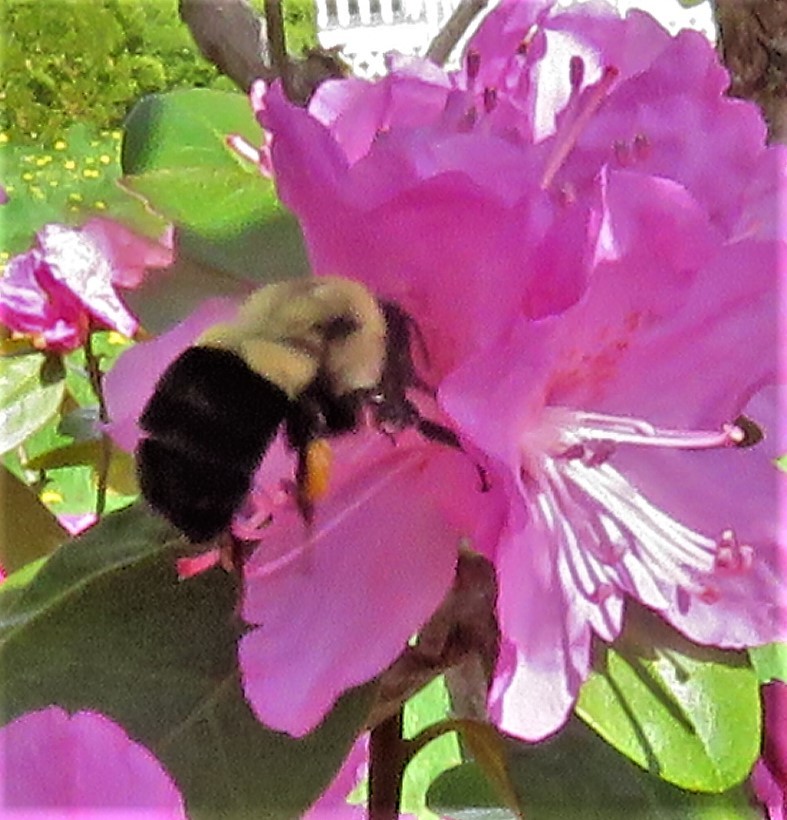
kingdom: Animalia
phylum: Arthropoda
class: Insecta
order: Hymenoptera
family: Apidae
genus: Bombus
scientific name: Bombus impatiens
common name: Common eastern bumble bee
